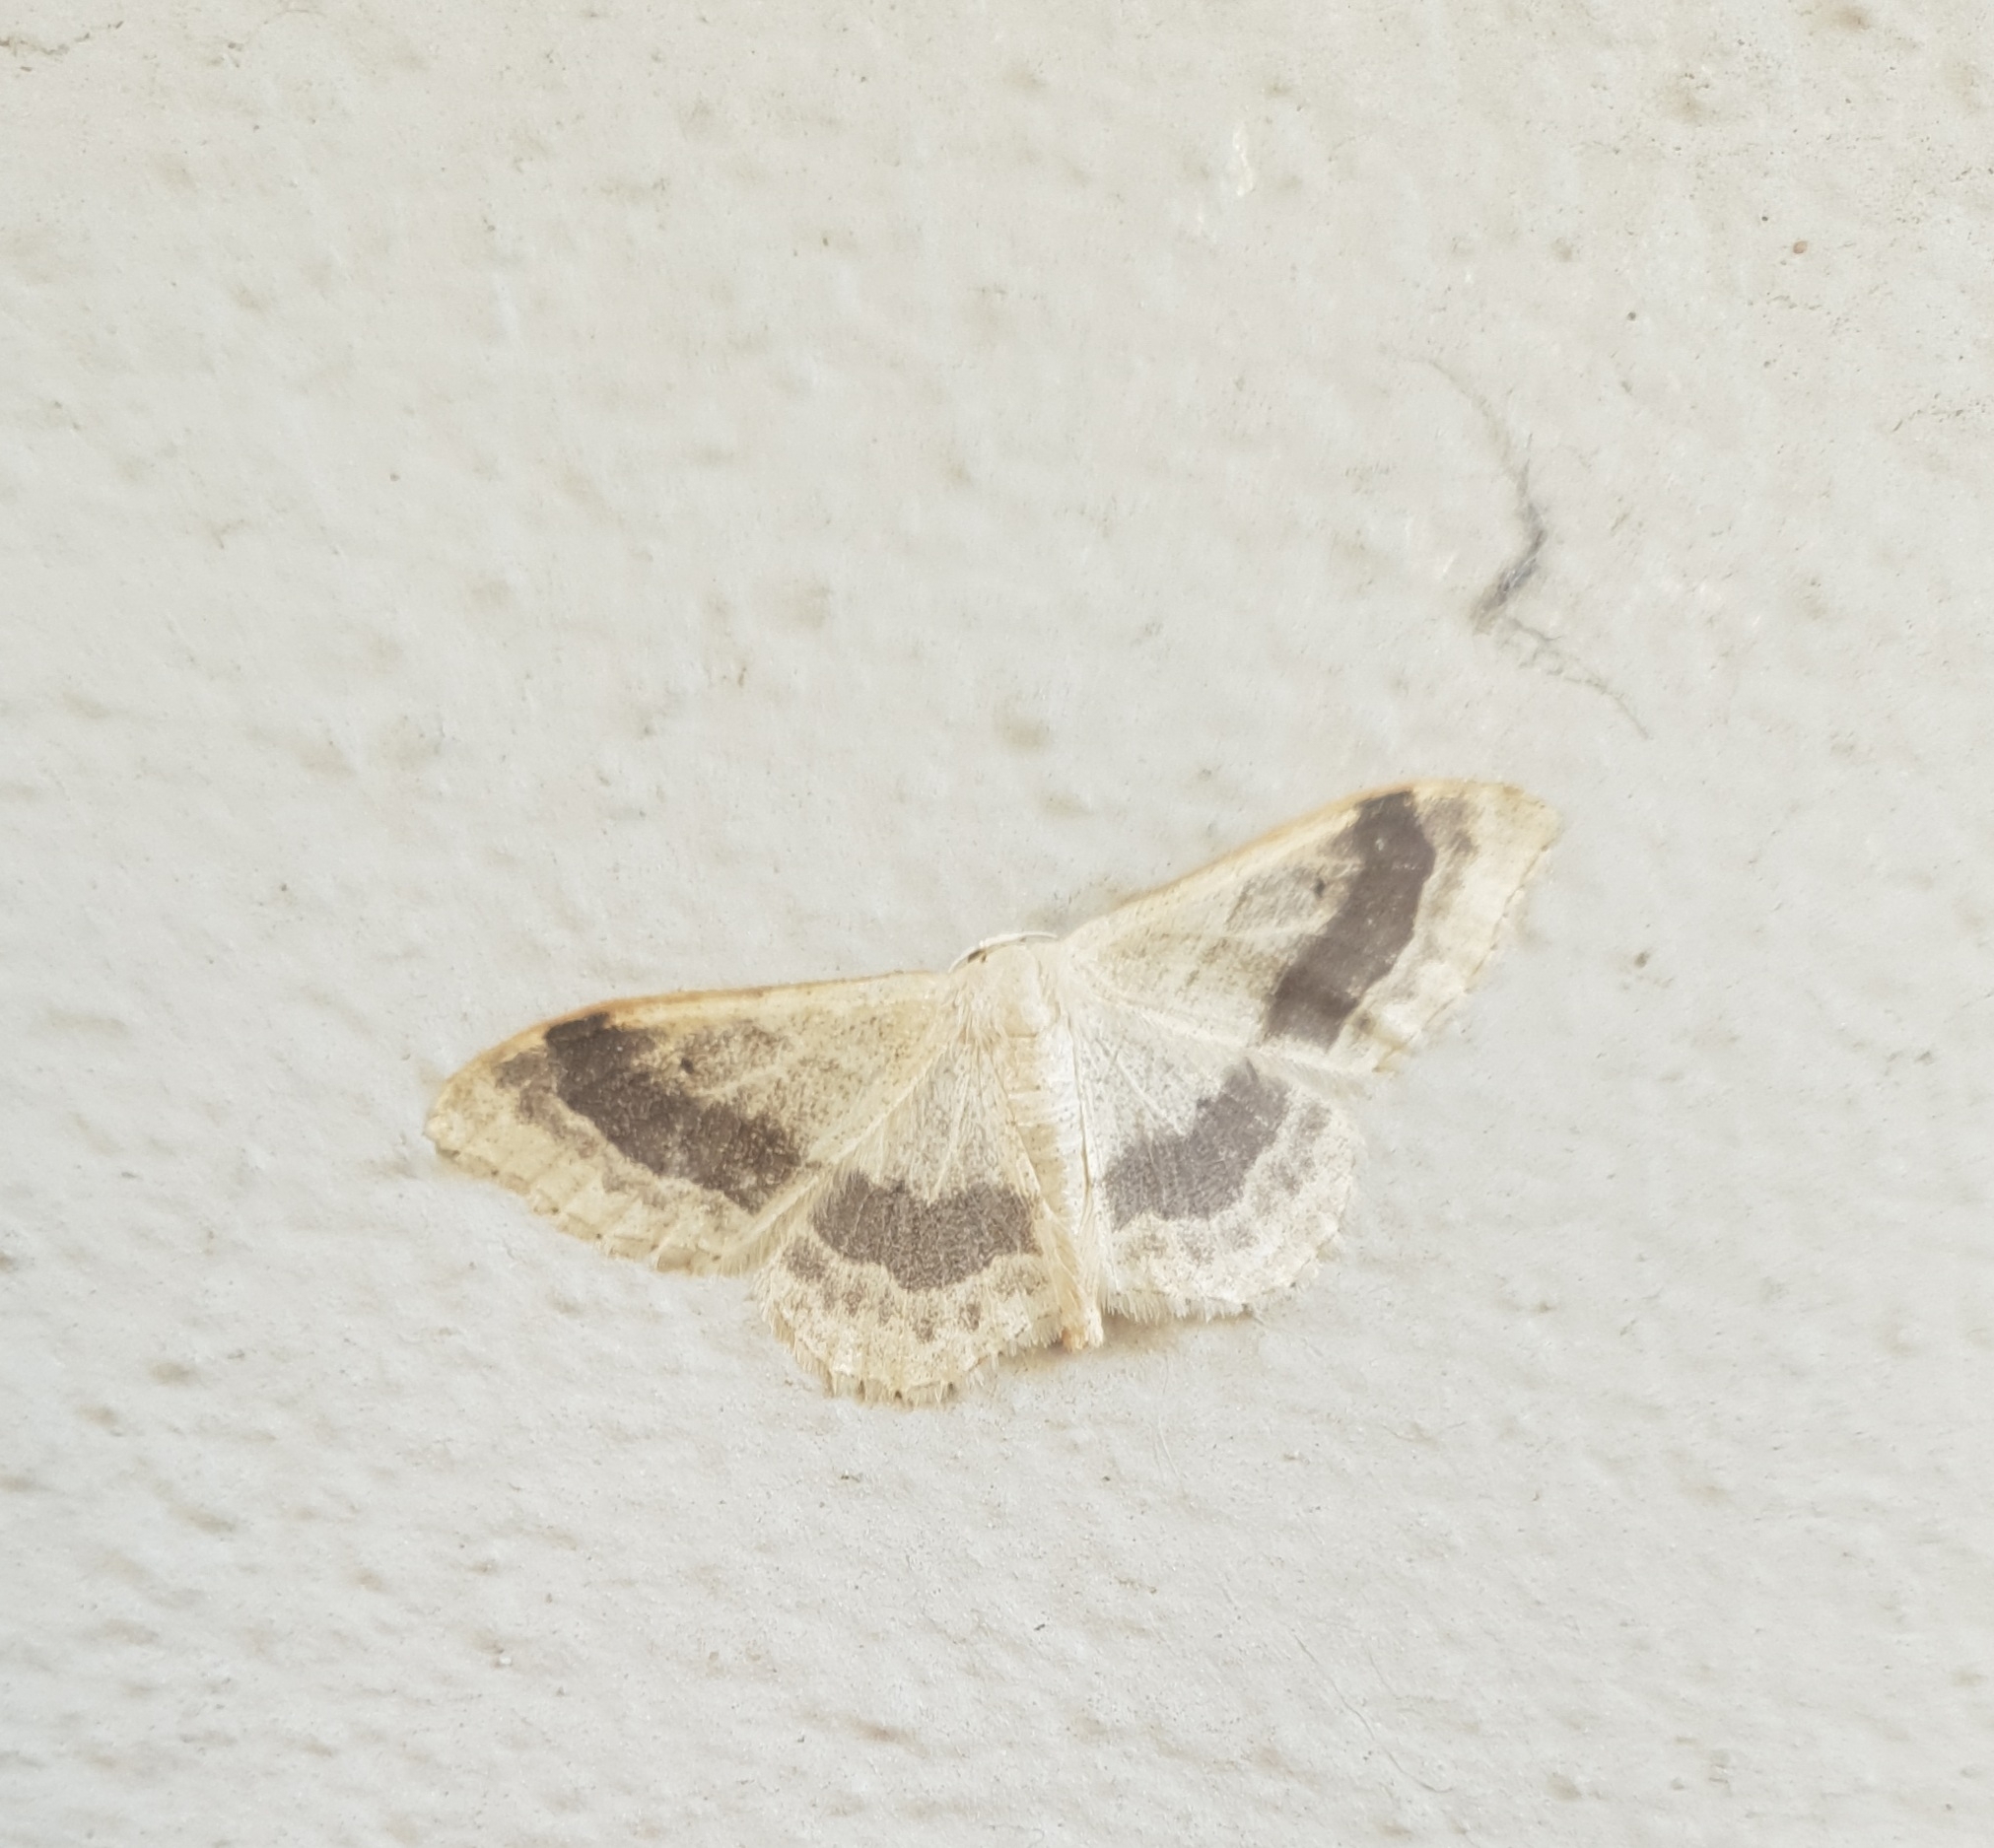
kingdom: Animalia
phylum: Arthropoda
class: Insecta
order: Lepidoptera
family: Geometridae
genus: Idaea
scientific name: Idaea aversata
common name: Riband wave
